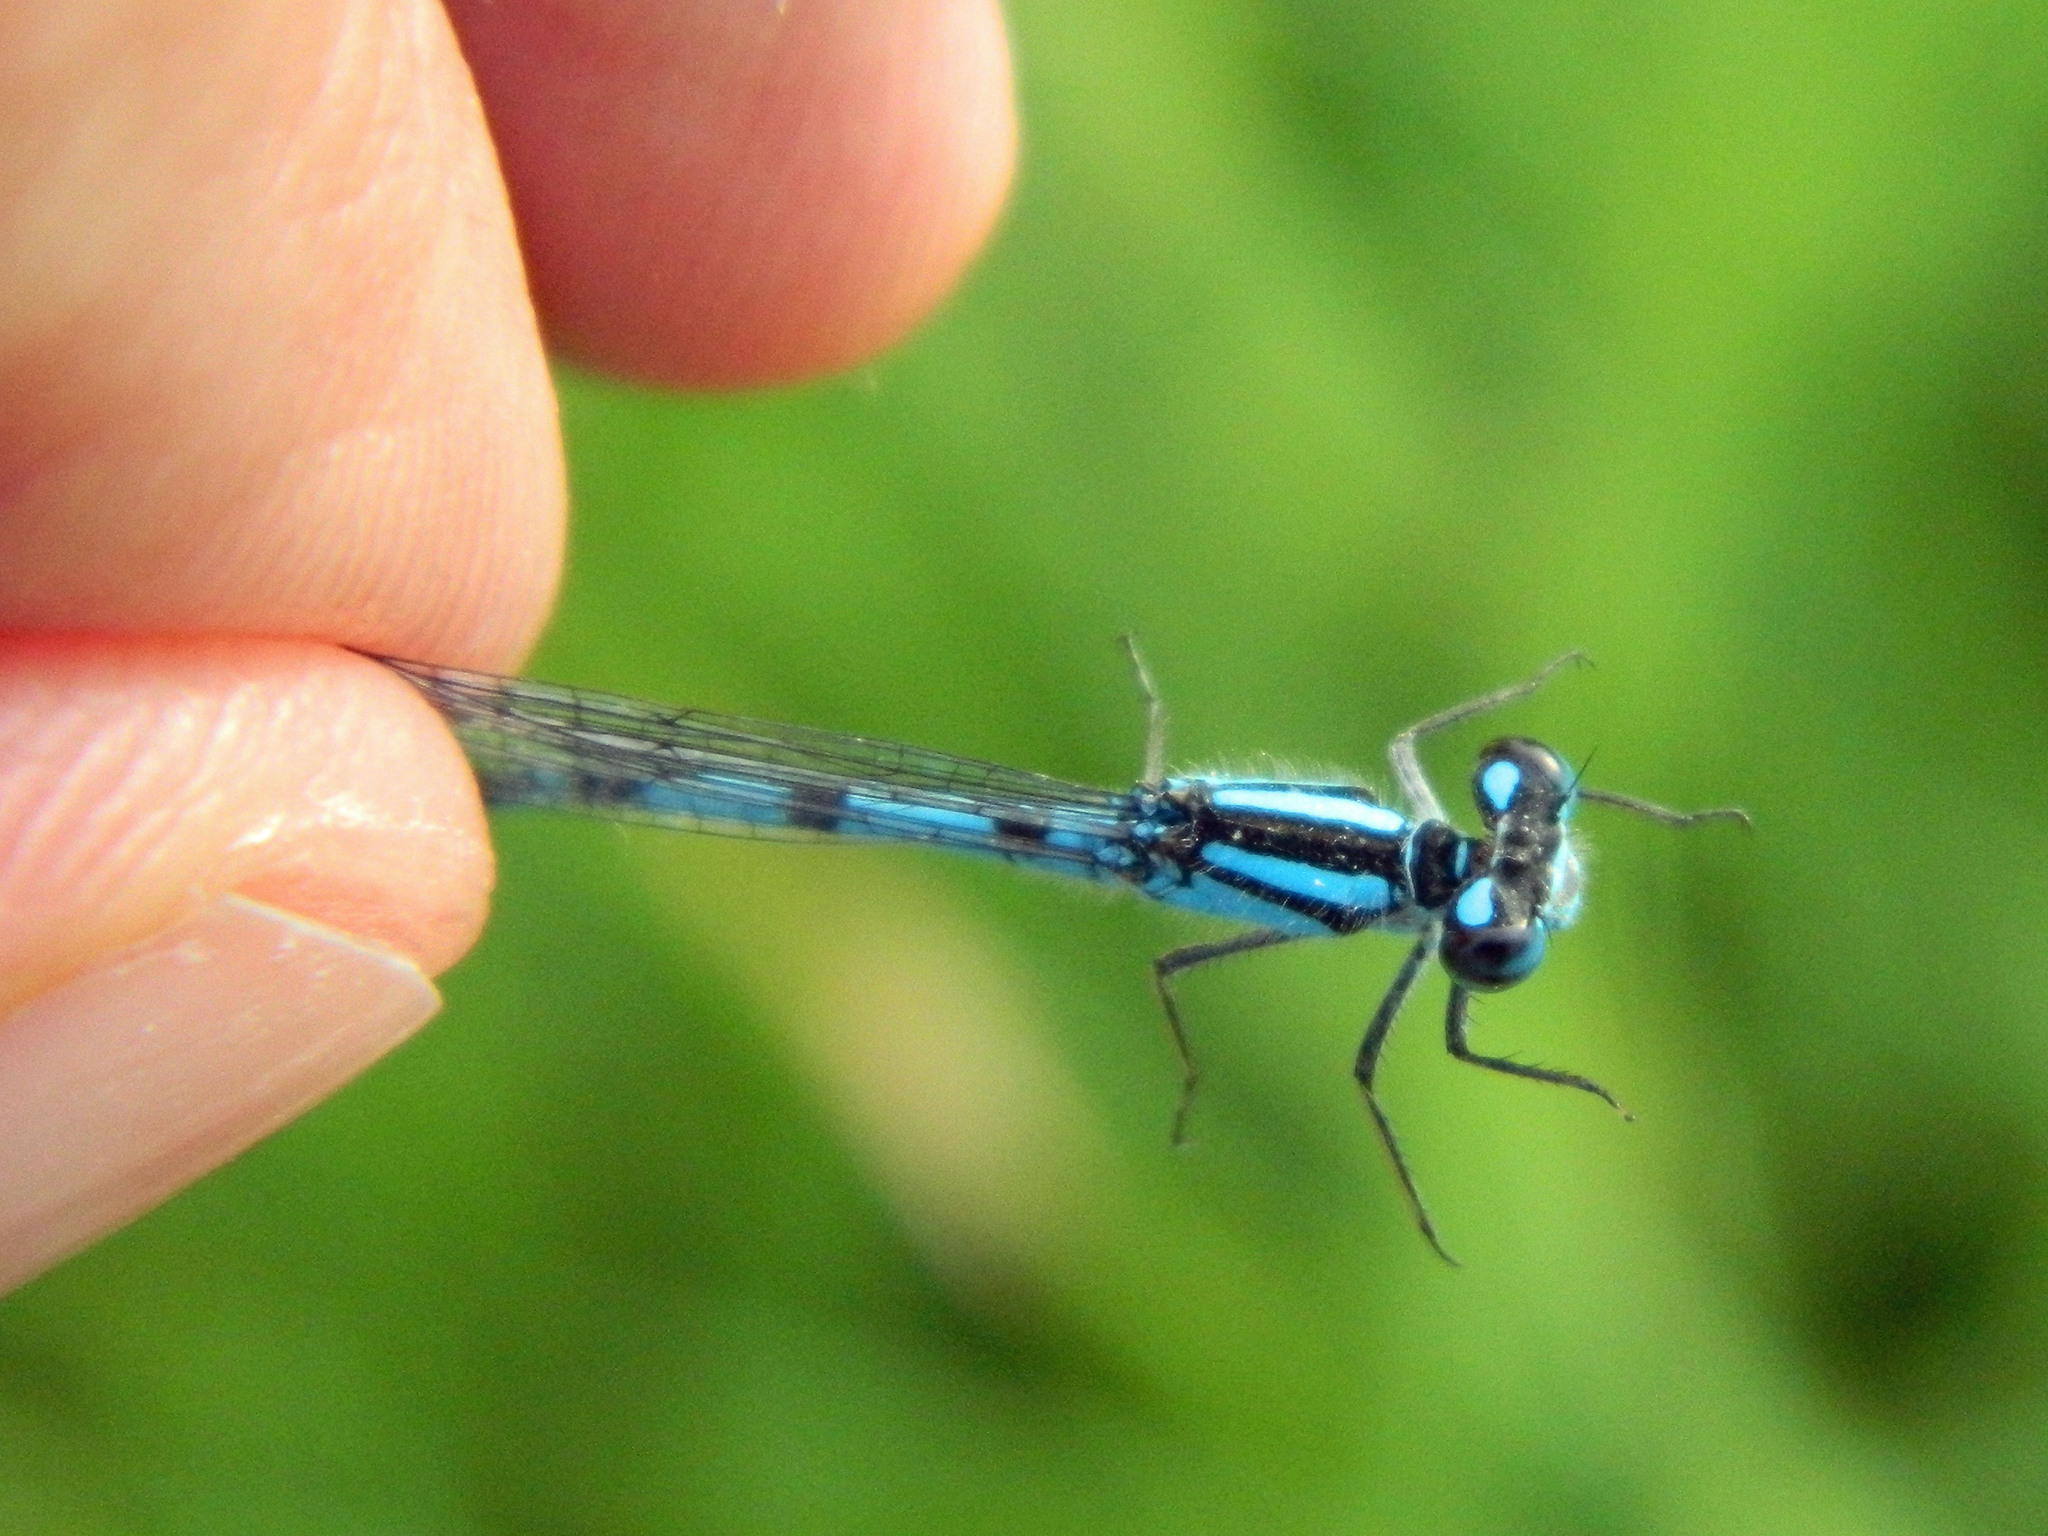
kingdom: Animalia
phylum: Arthropoda
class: Insecta
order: Odonata
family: Coenagrionidae
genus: Enallagma
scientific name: Enallagma hageni
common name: Hagen's bluet
